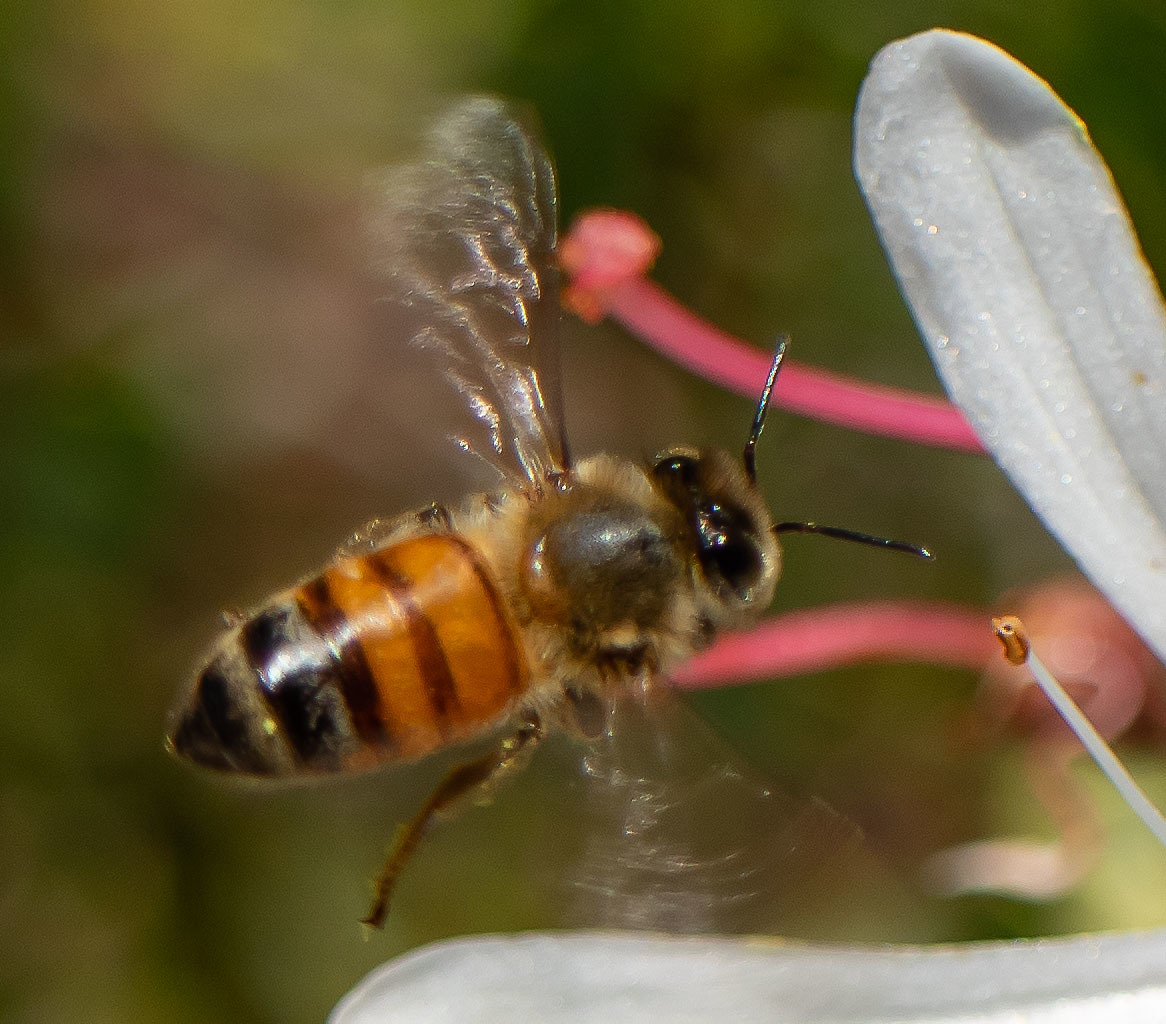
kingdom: Animalia
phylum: Arthropoda
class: Insecta
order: Hymenoptera
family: Apidae
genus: Apis
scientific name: Apis mellifera
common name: Honey bee
